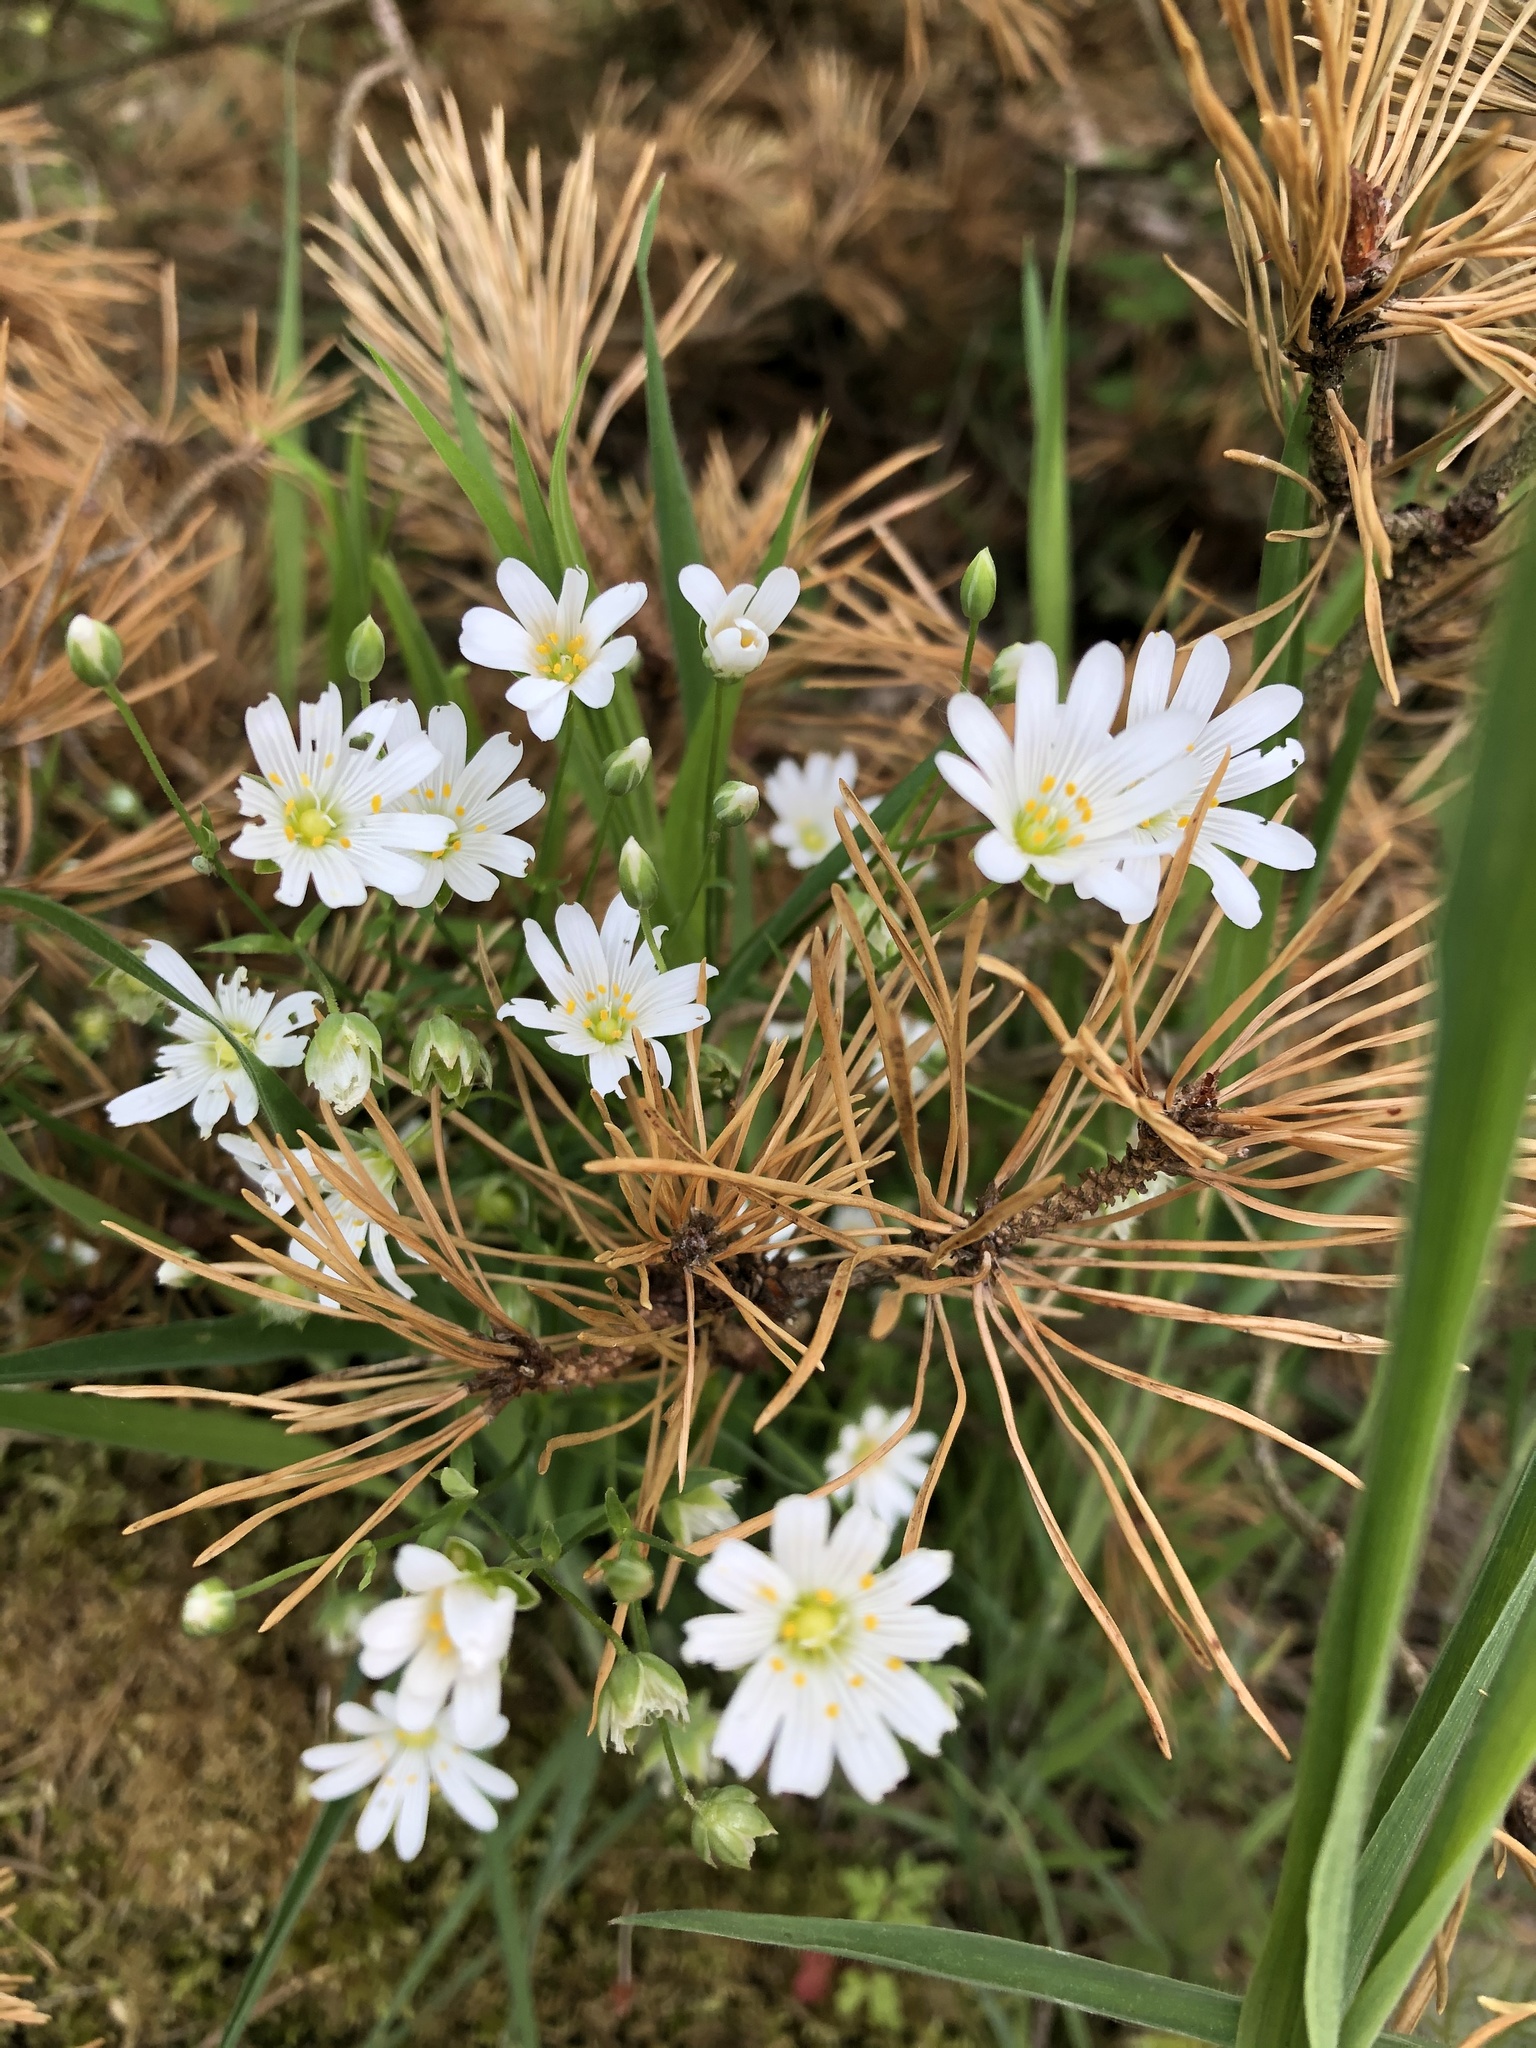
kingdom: Plantae
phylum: Tracheophyta
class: Magnoliopsida
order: Caryophyllales
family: Caryophyllaceae
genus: Rabelera
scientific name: Rabelera holostea
